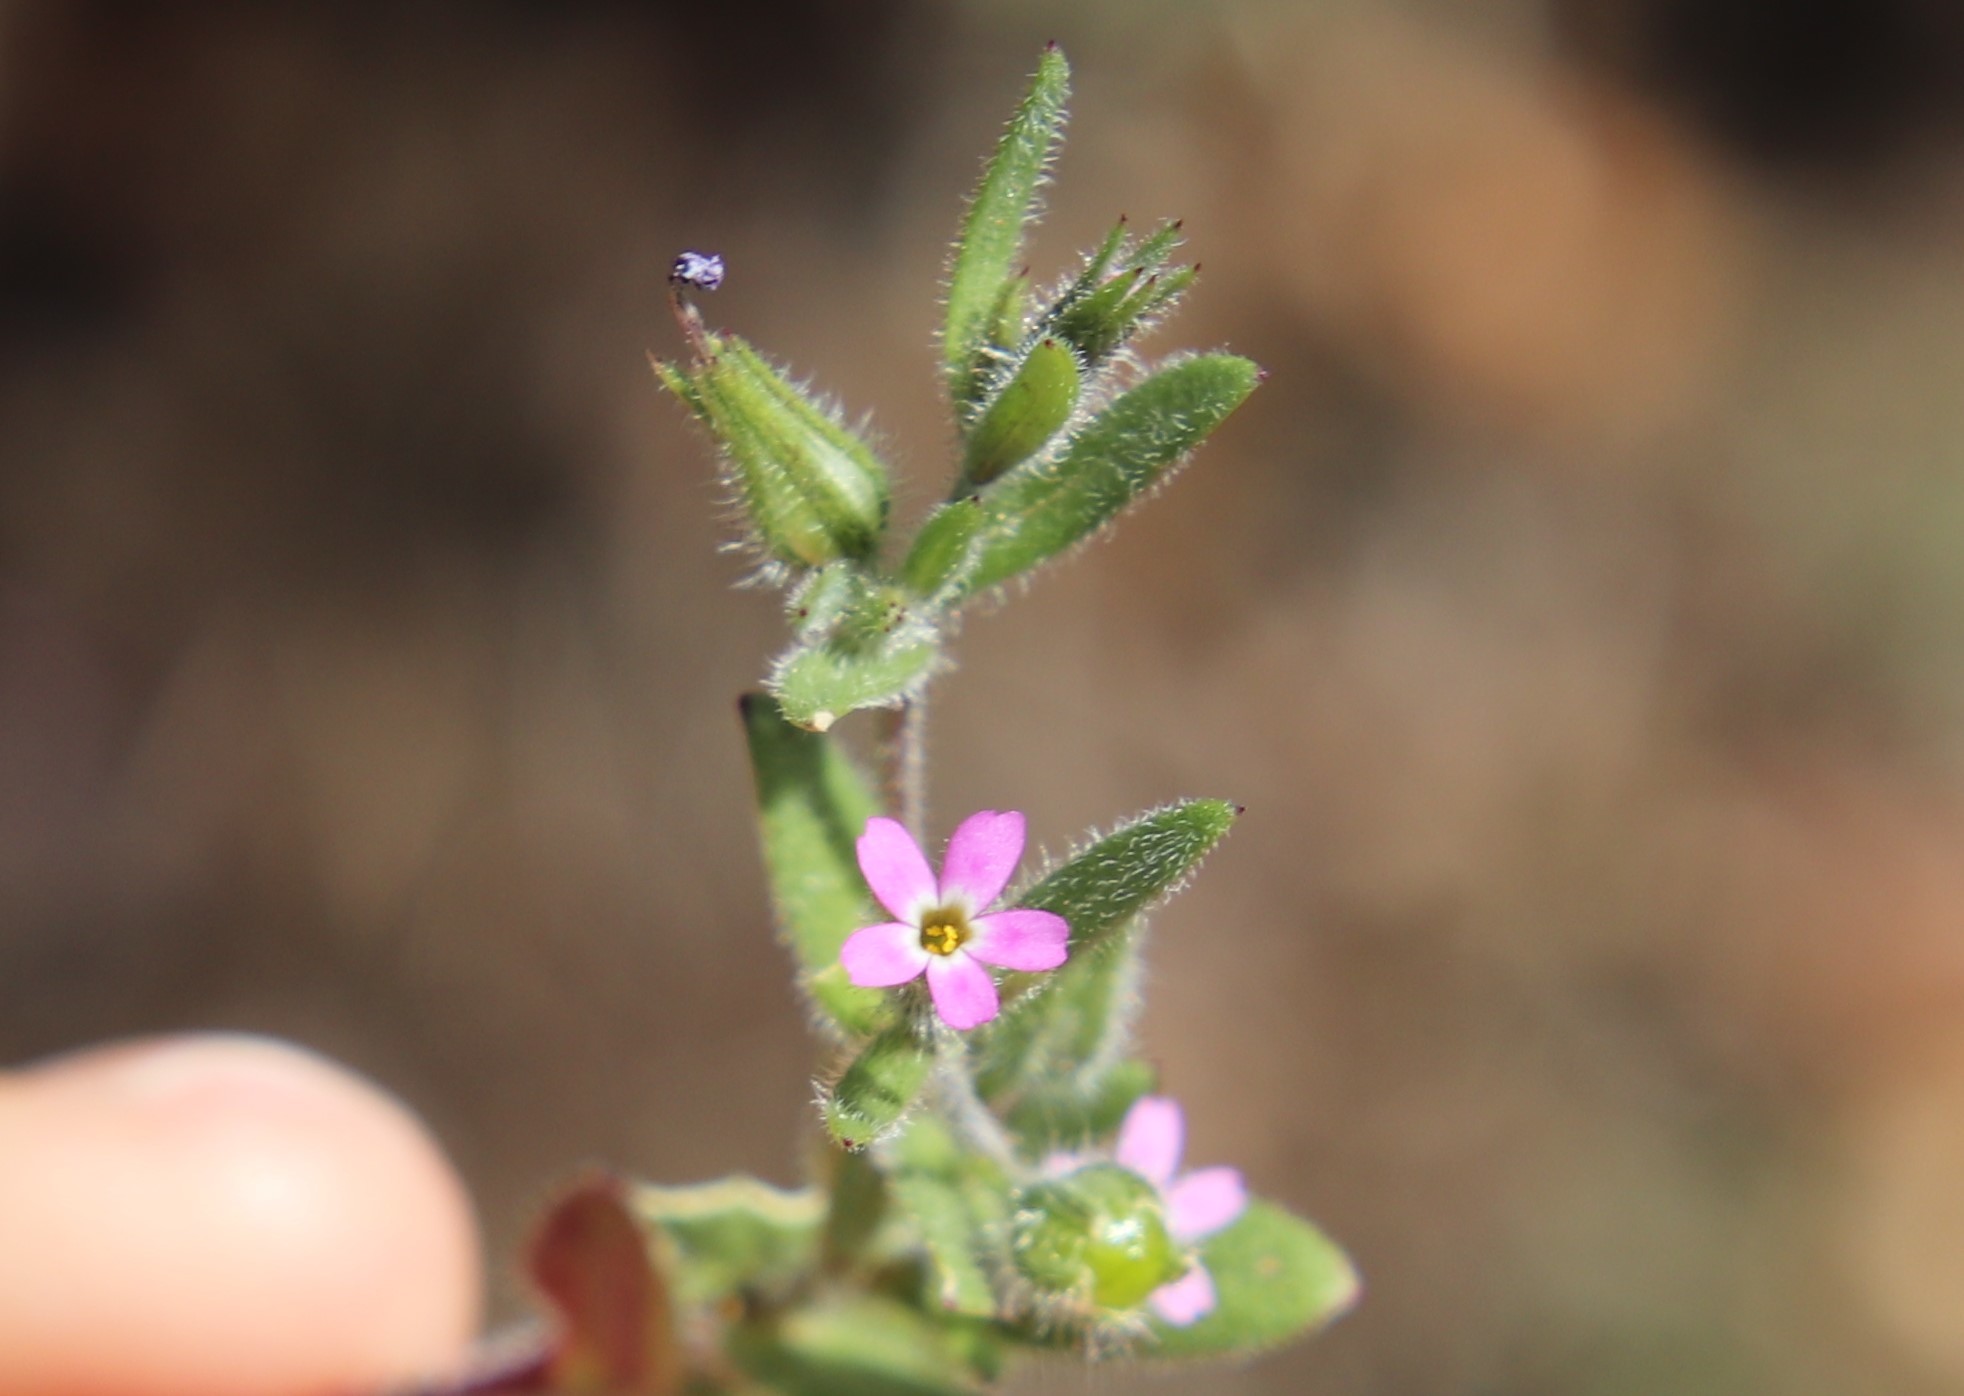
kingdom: Plantae
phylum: Tracheophyta
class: Magnoliopsida
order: Ericales
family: Polemoniaceae
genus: Phlox
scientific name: Phlox gracilis
